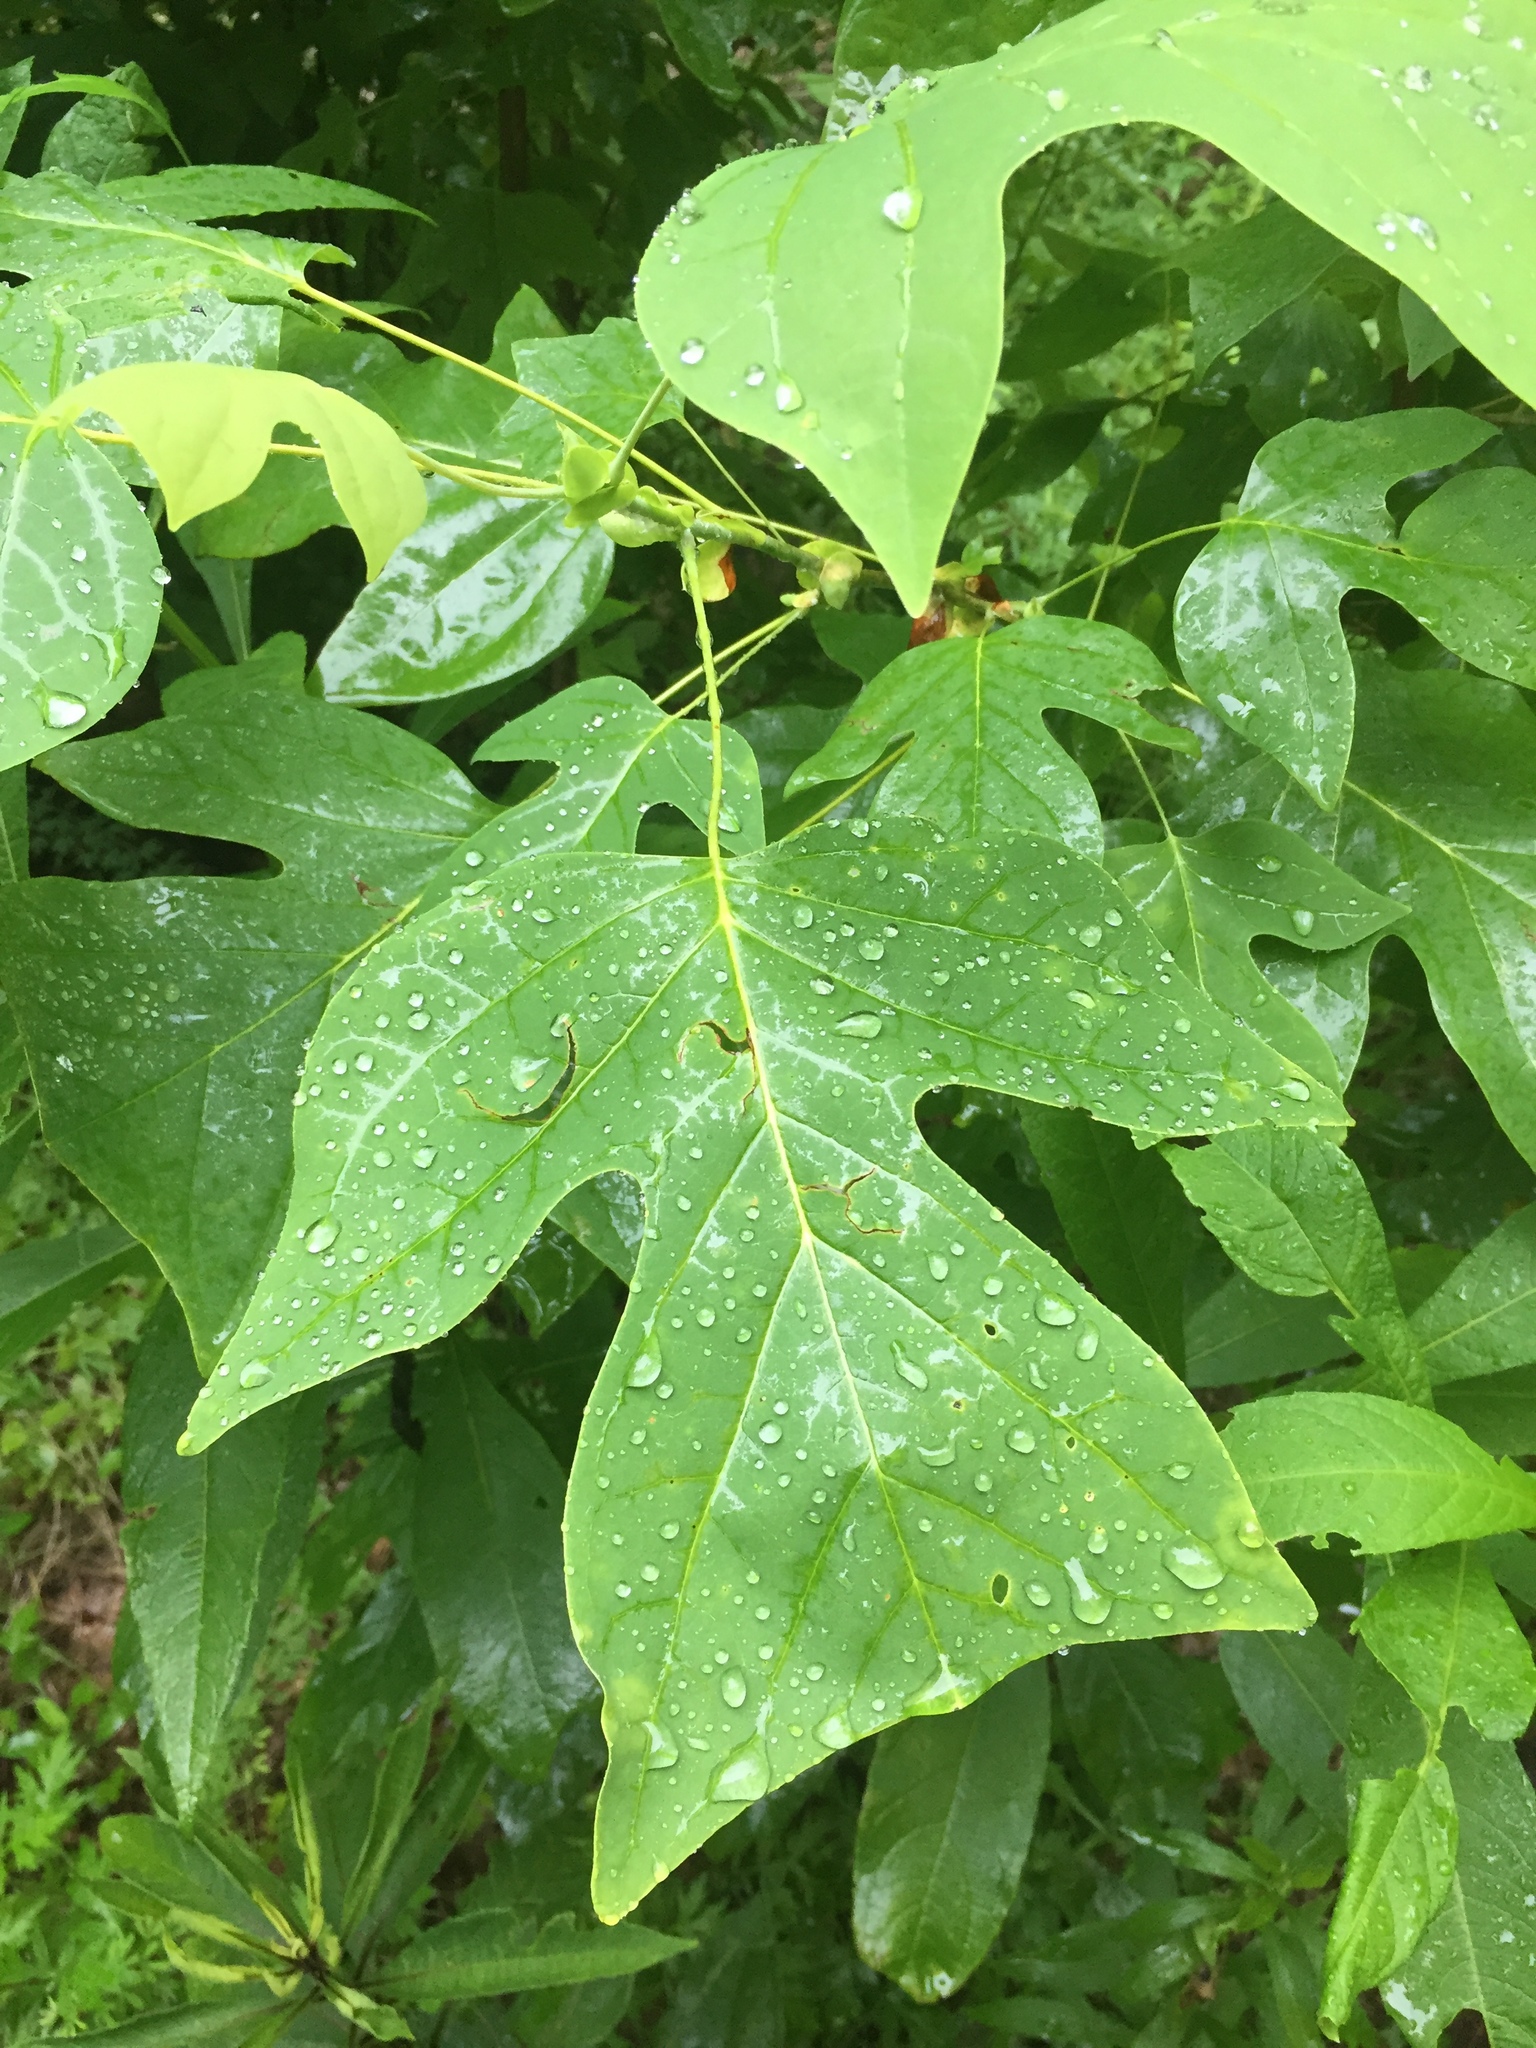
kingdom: Plantae
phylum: Tracheophyta
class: Magnoliopsida
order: Magnoliales
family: Magnoliaceae
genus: Liriodendron
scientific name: Liriodendron tulipifera
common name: Tulip tree
